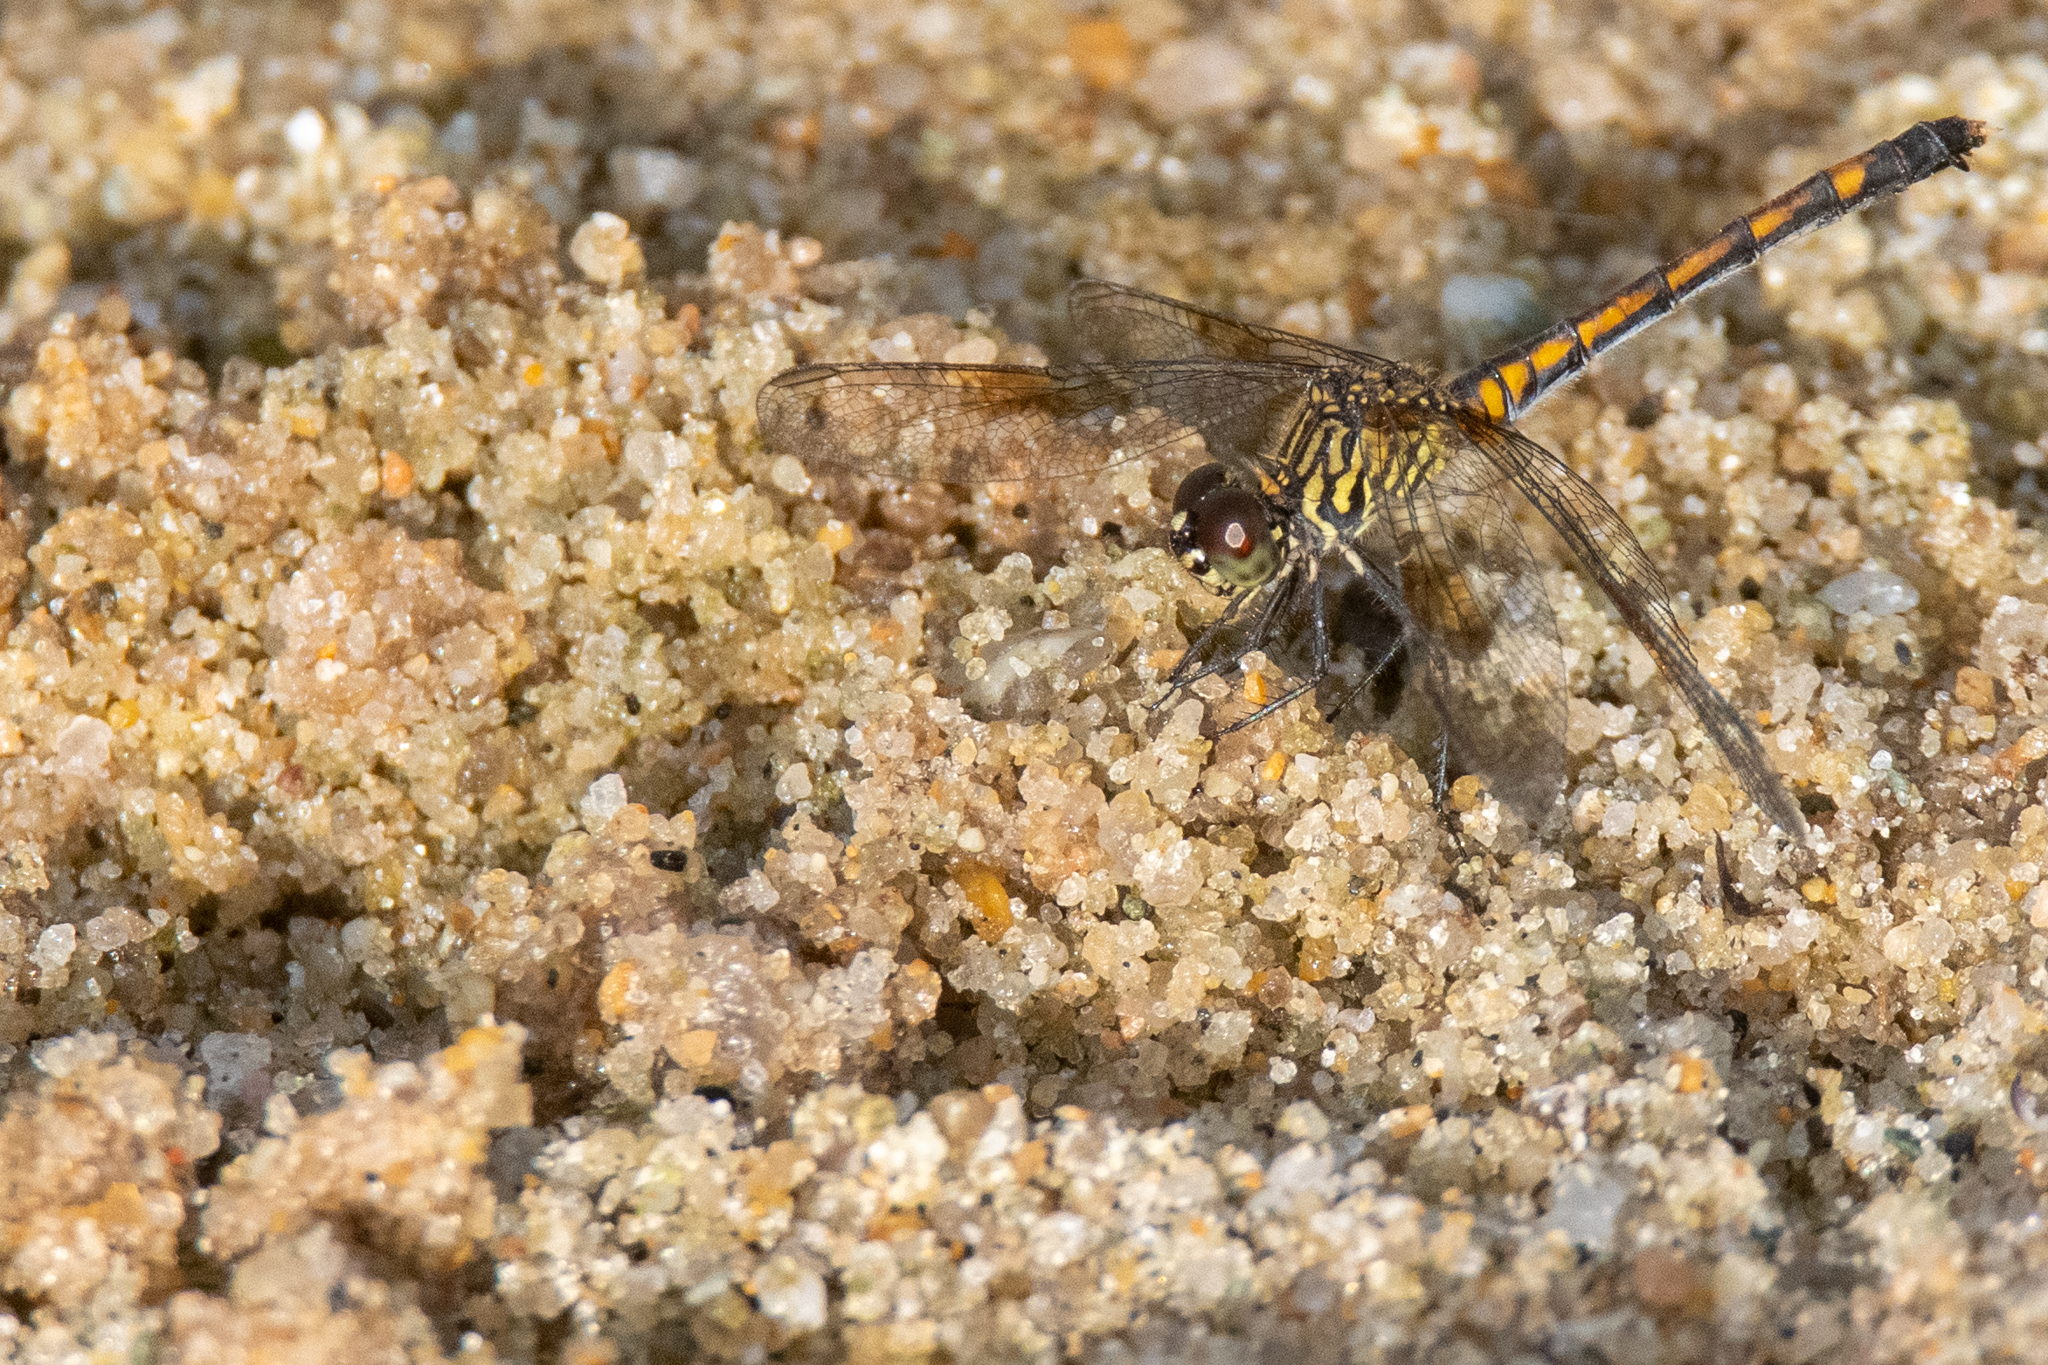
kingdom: Animalia
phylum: Arthropoda
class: Insecta
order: Odonata
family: Libellulidae
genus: Erythrodiplax
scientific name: Erythrodiplax berenice
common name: Seaside dragonlet
